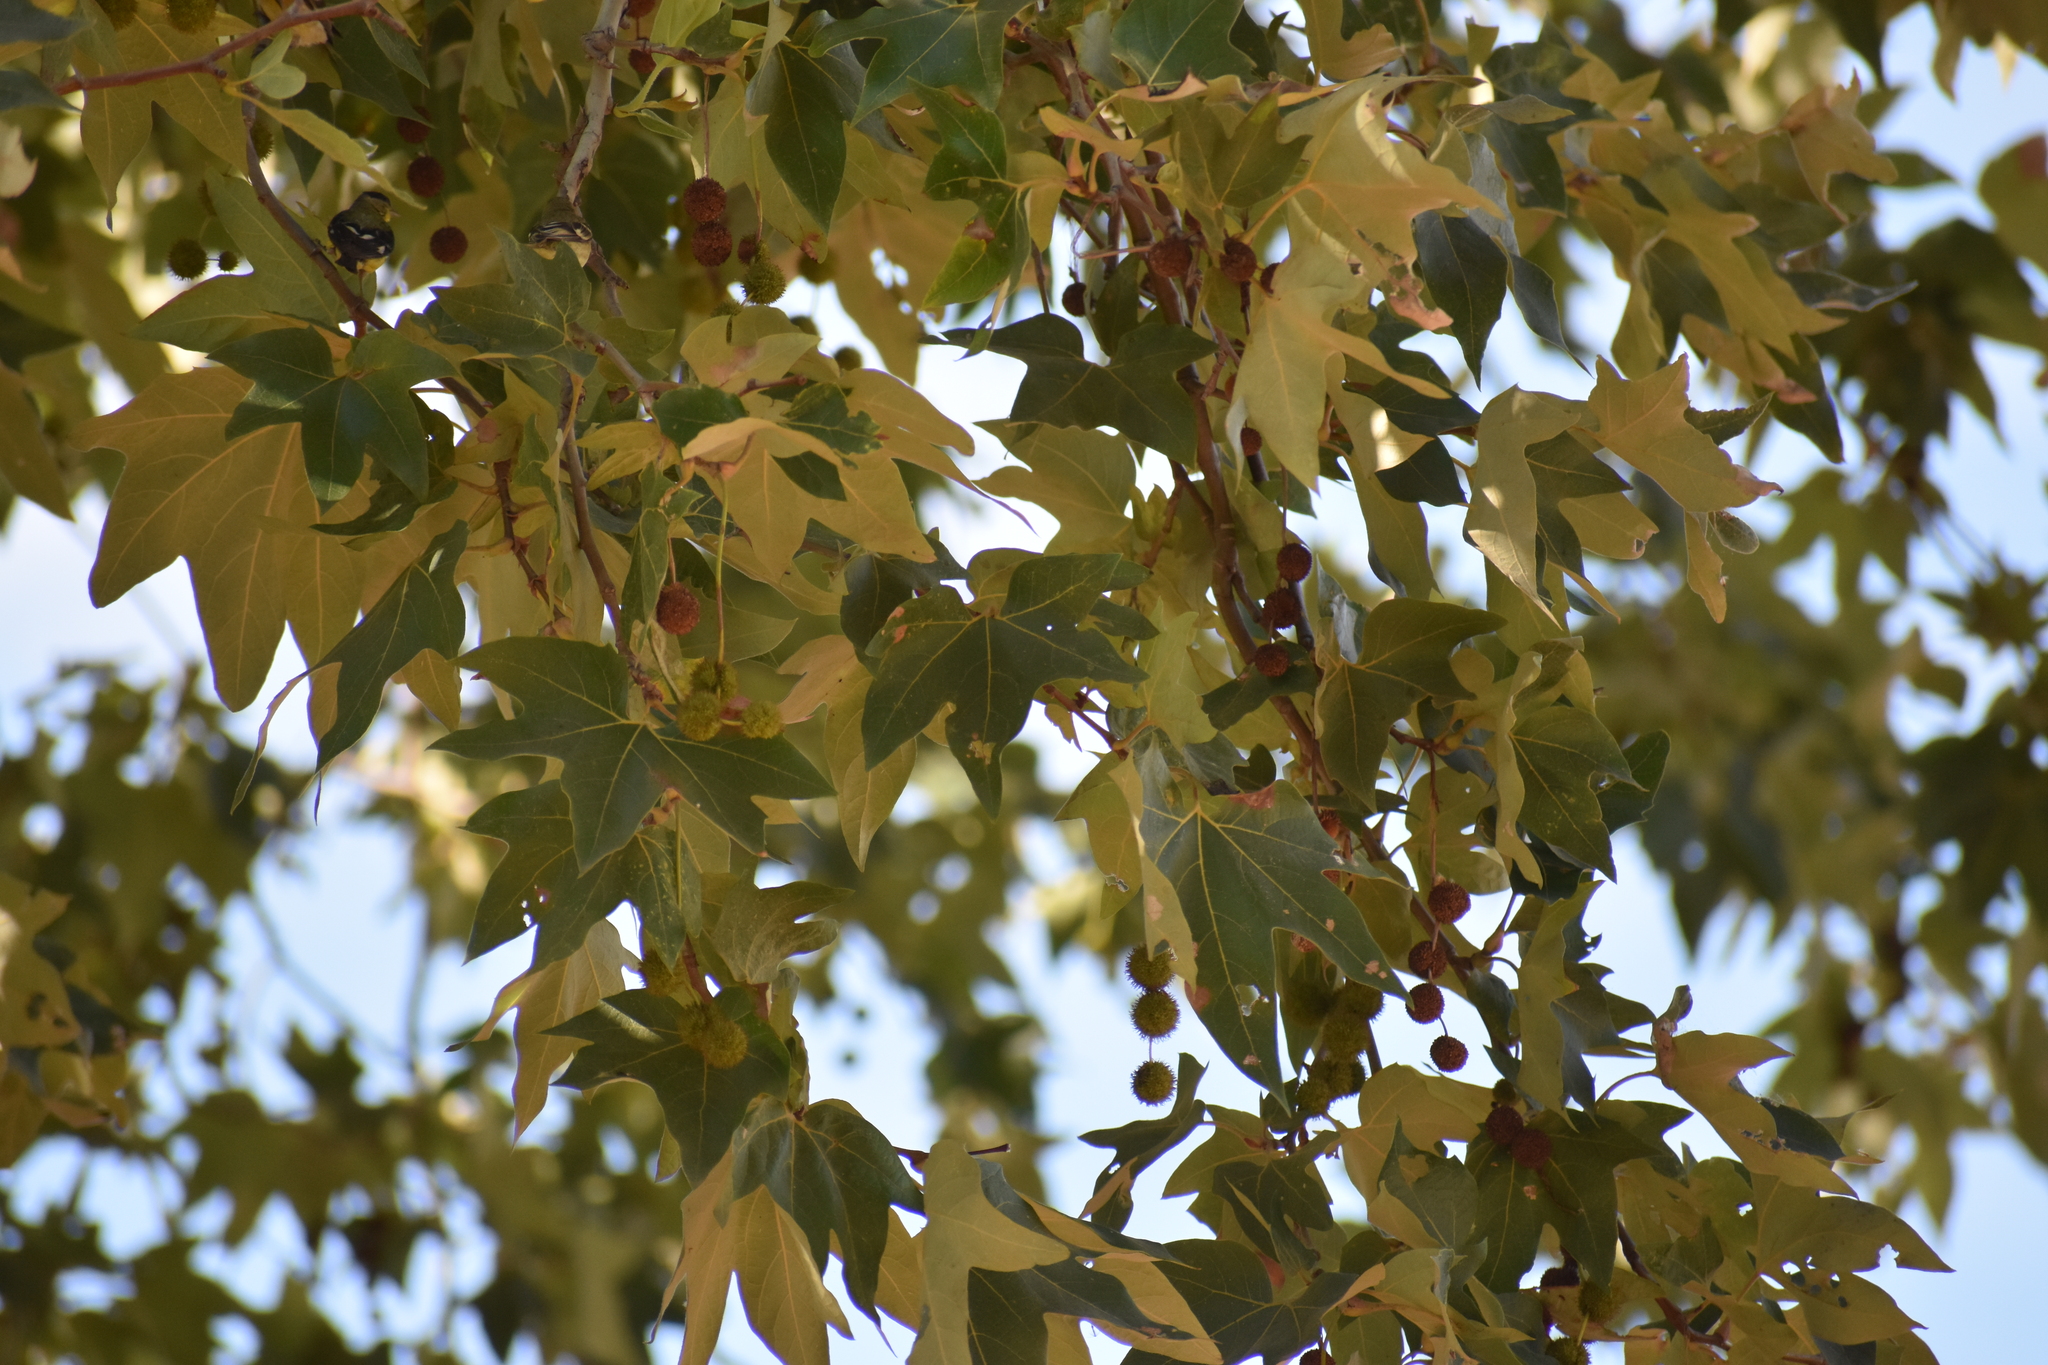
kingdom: Animalia
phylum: Chordata
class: Aves
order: Passeriformes
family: Fringillidae
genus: Spinus
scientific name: Spinus psaltria
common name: Lesser goldfinch
